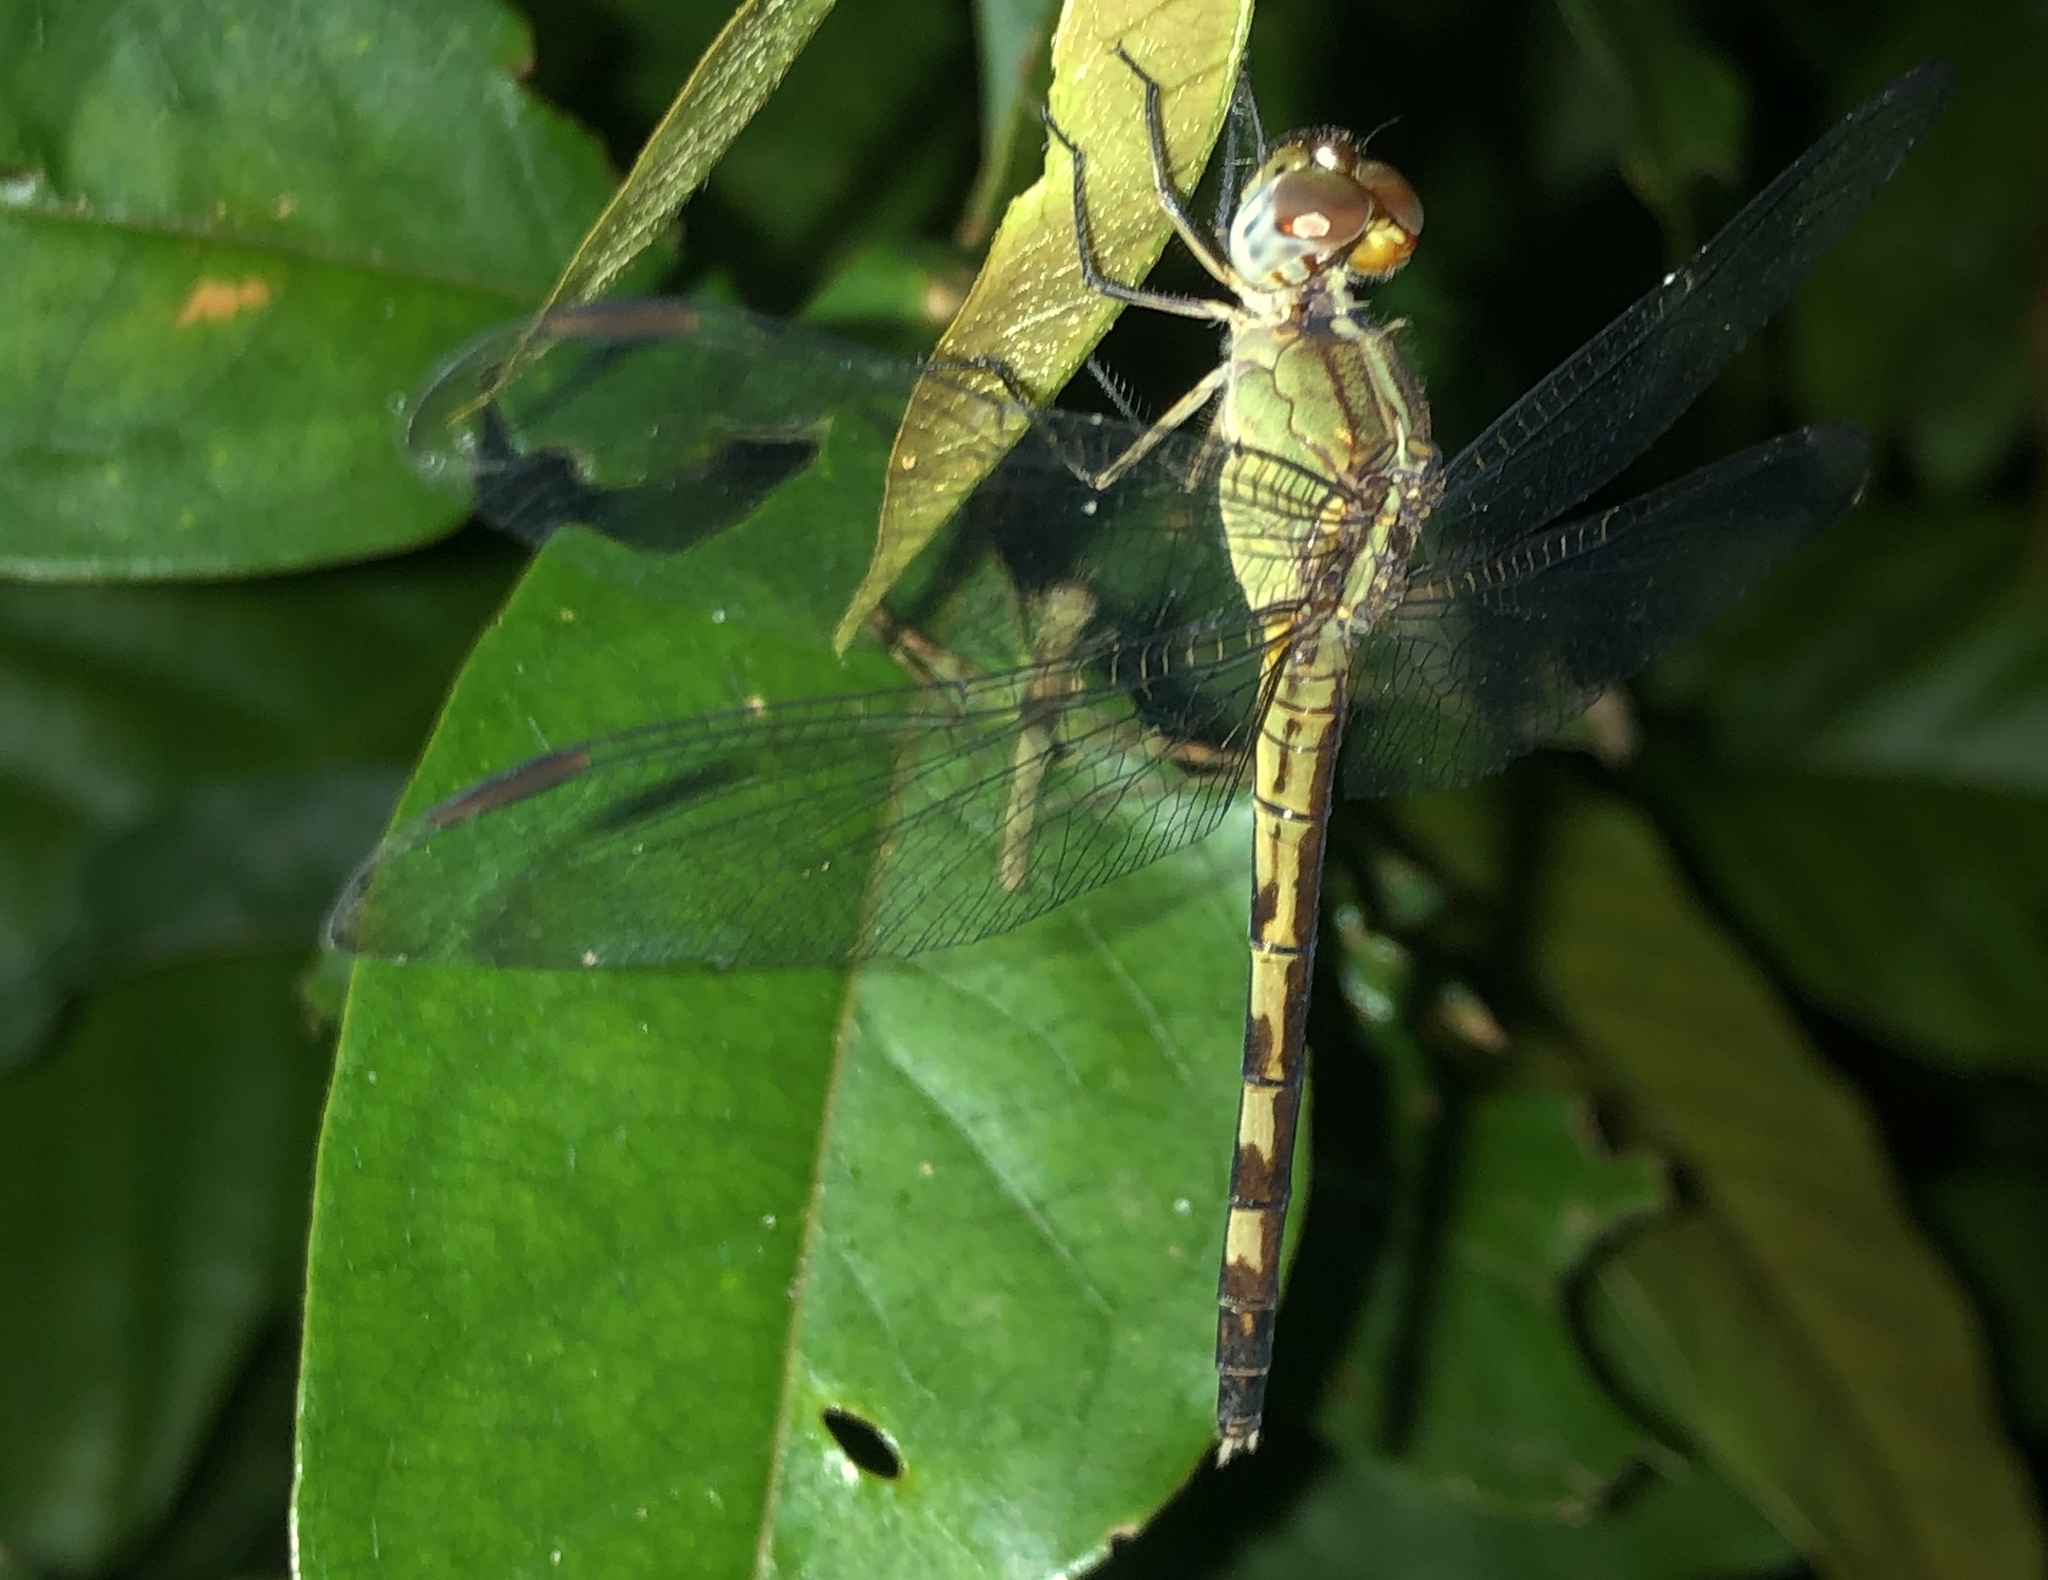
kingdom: Animalia
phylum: Arthropoda
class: Insecta
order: Odonata
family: Libellulidae
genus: Erythrodiplax
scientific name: Erythrodiplax umbrata
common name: Band-winged dragonlet
